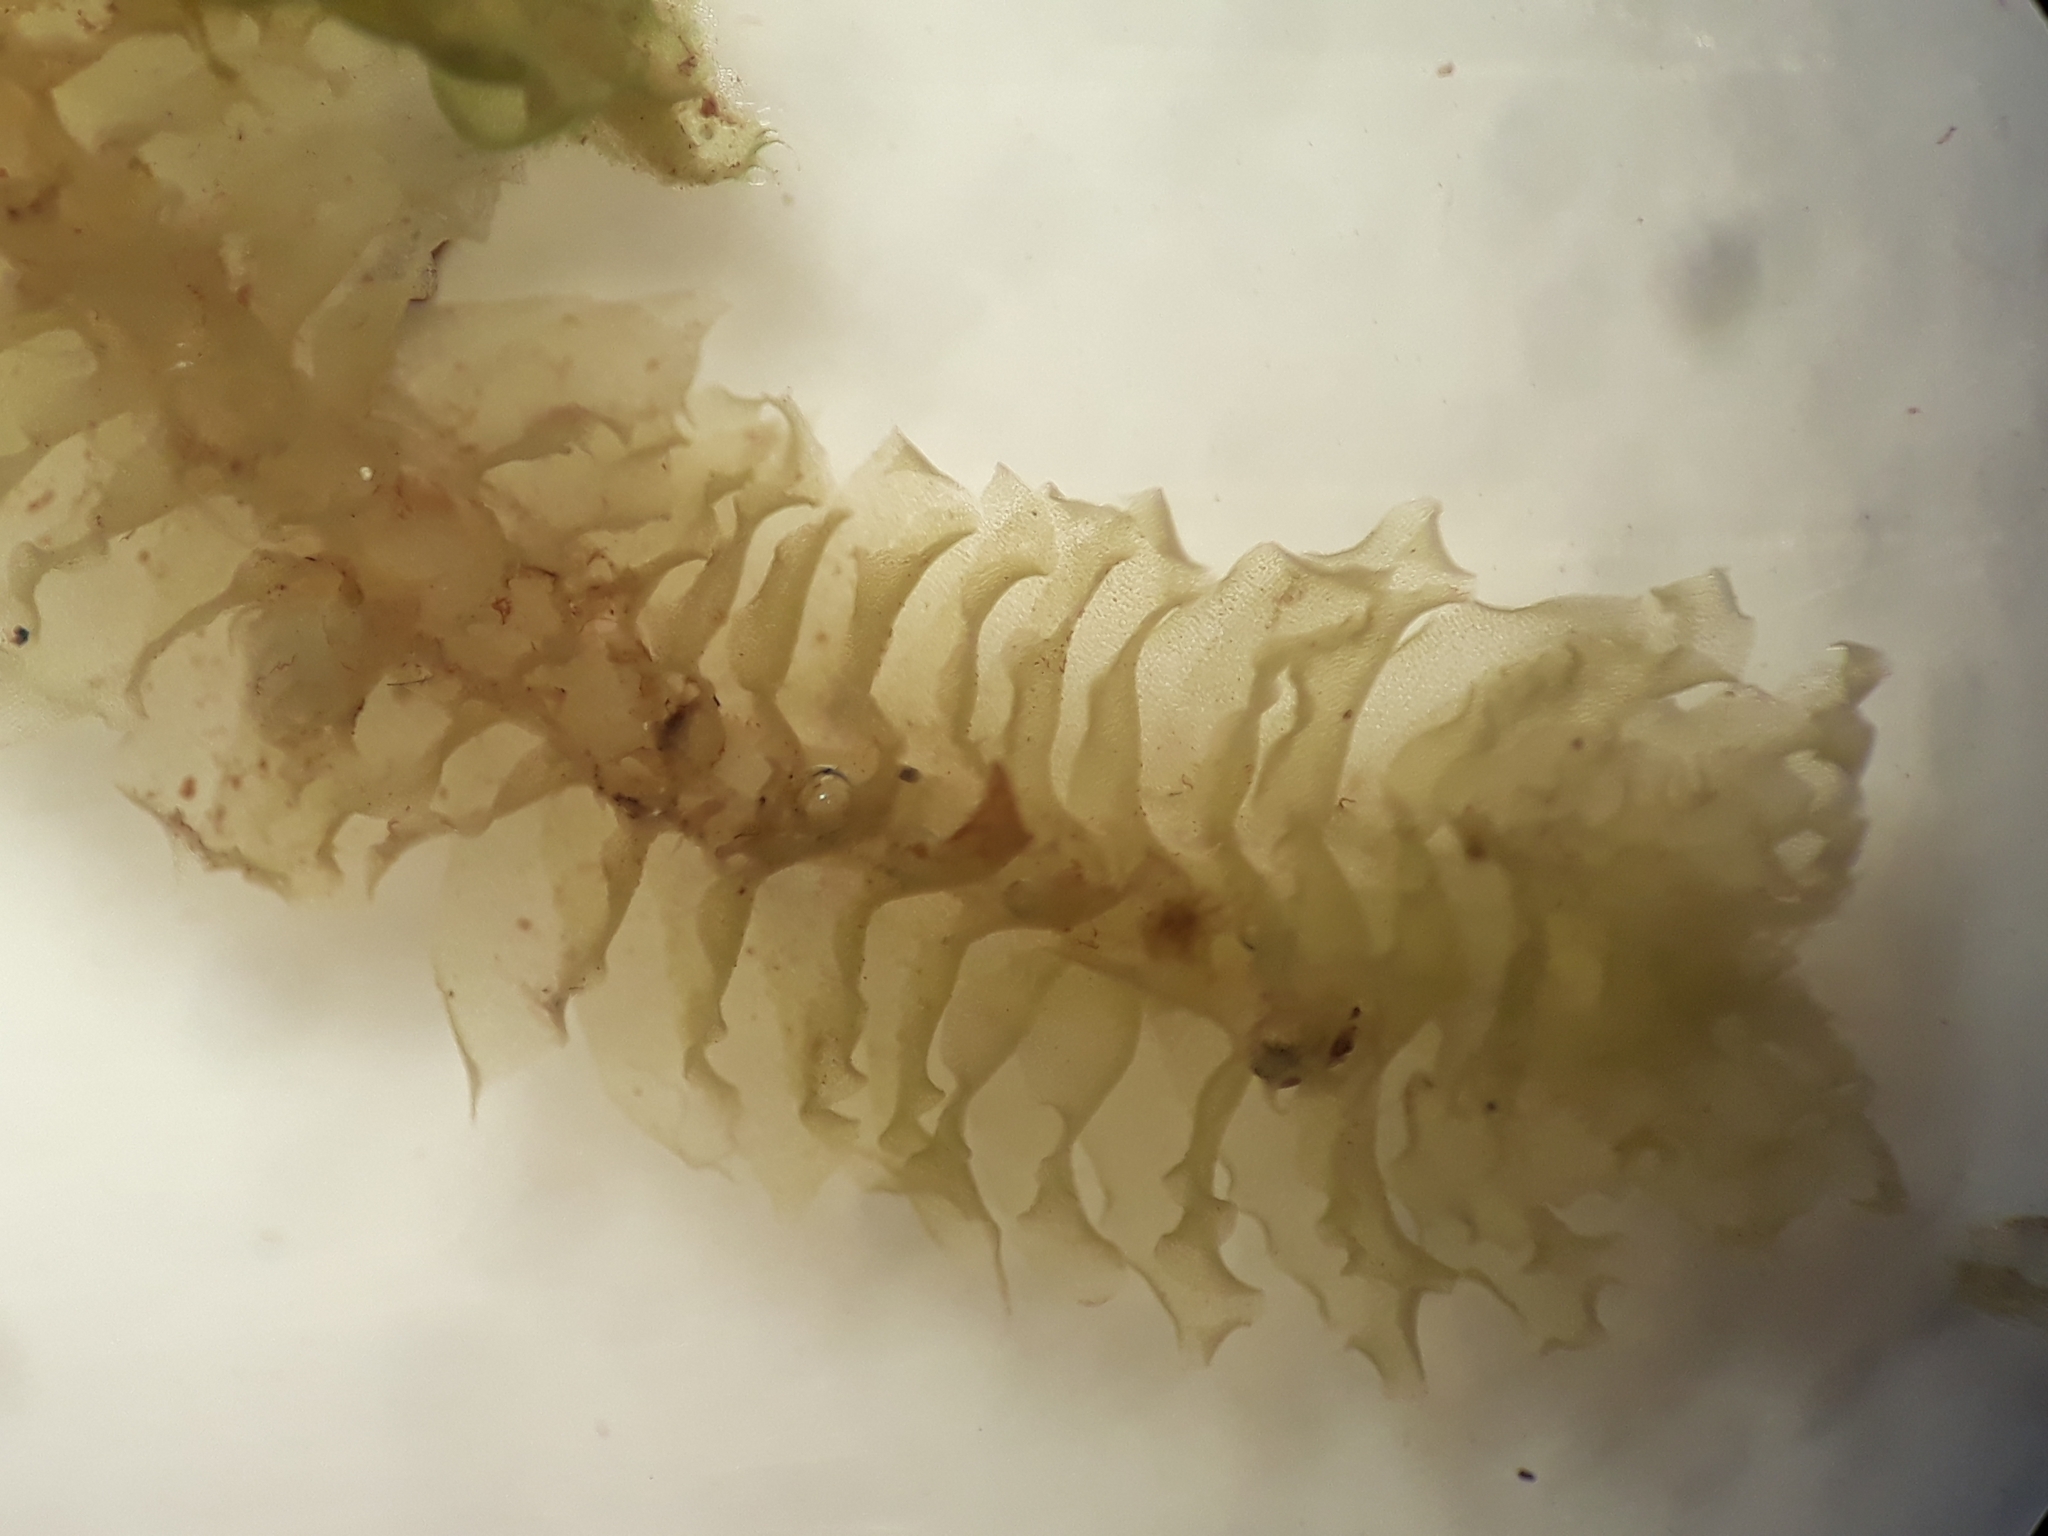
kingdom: Plantae
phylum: Marchantiophyta
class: Jungermanniopsida
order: Jungermanniales
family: Lophocoleaceae
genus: Heteroscyphus
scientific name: Heteroscyphus sinuosus
